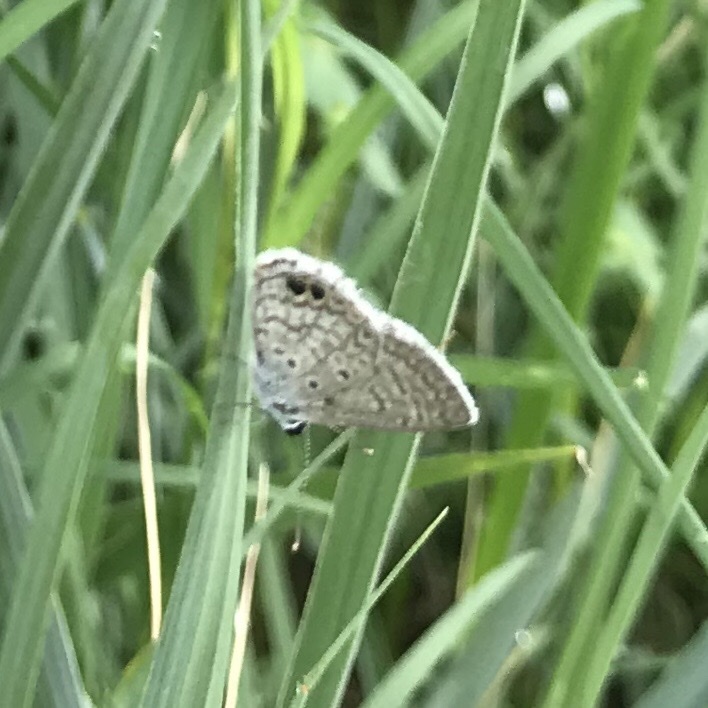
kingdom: Animalia
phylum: Arthropoda
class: Insecta
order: Lepidoptera
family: Lycaenidae
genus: Hemiargus
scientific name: Hemiargus ceraunus
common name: Ceraunus blue
